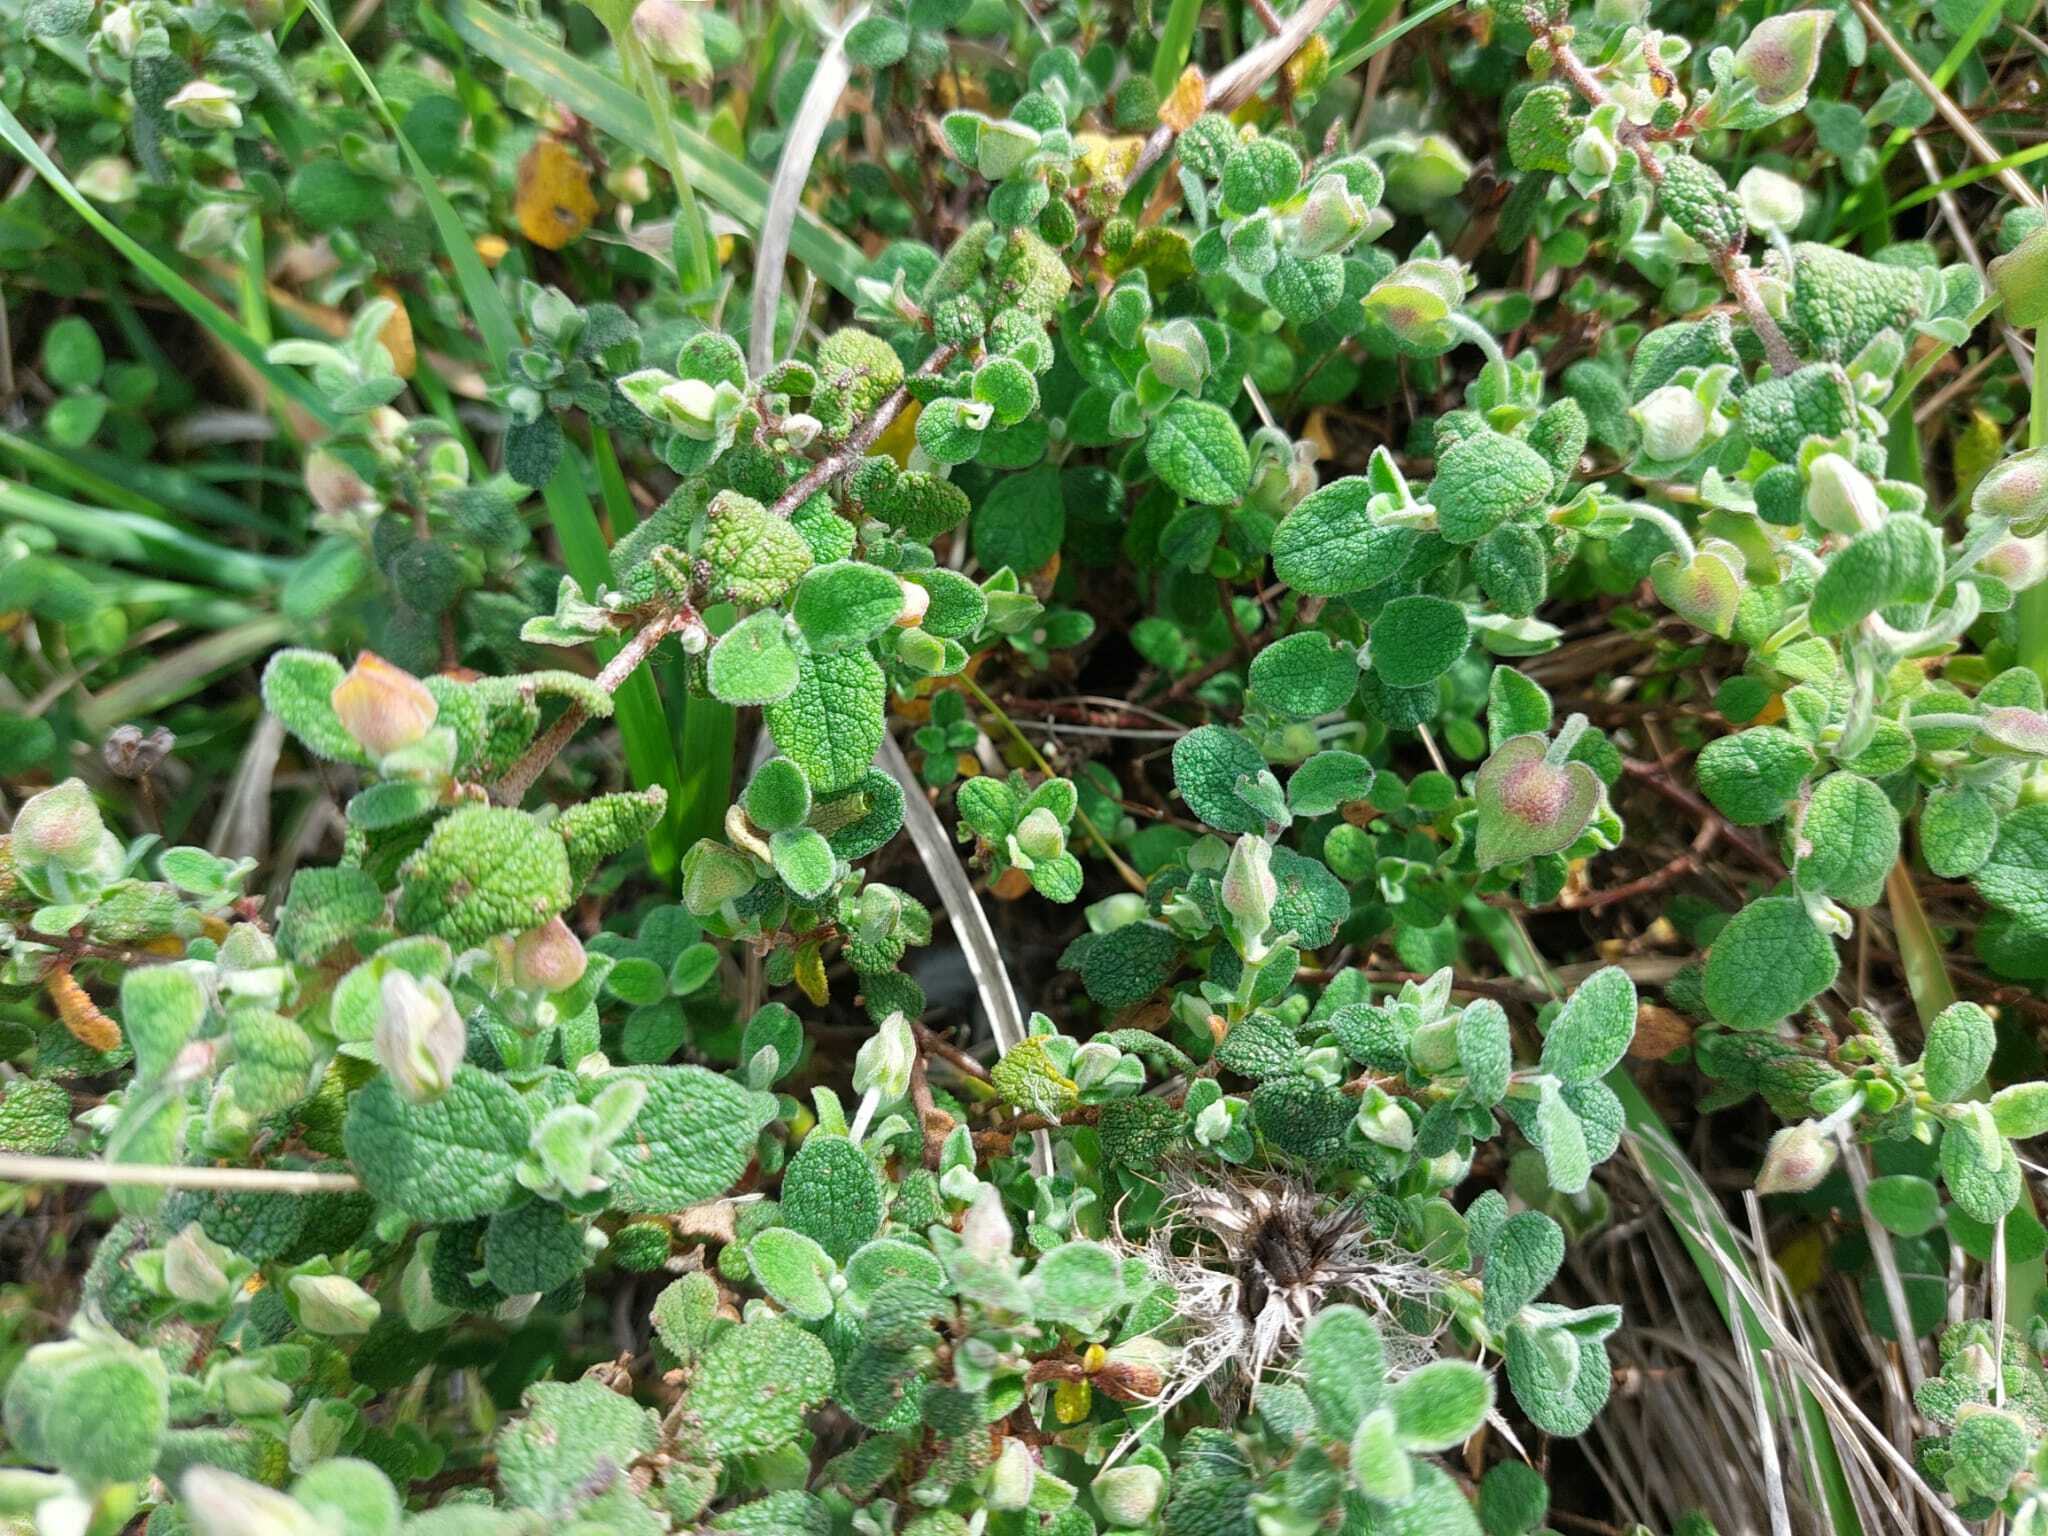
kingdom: Plantae
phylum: Tracheophyta
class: Magnoliopsida
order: Malvales
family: Cistaceae
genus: Cistus
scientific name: Cistus salviifolius
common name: Salvia cistus
